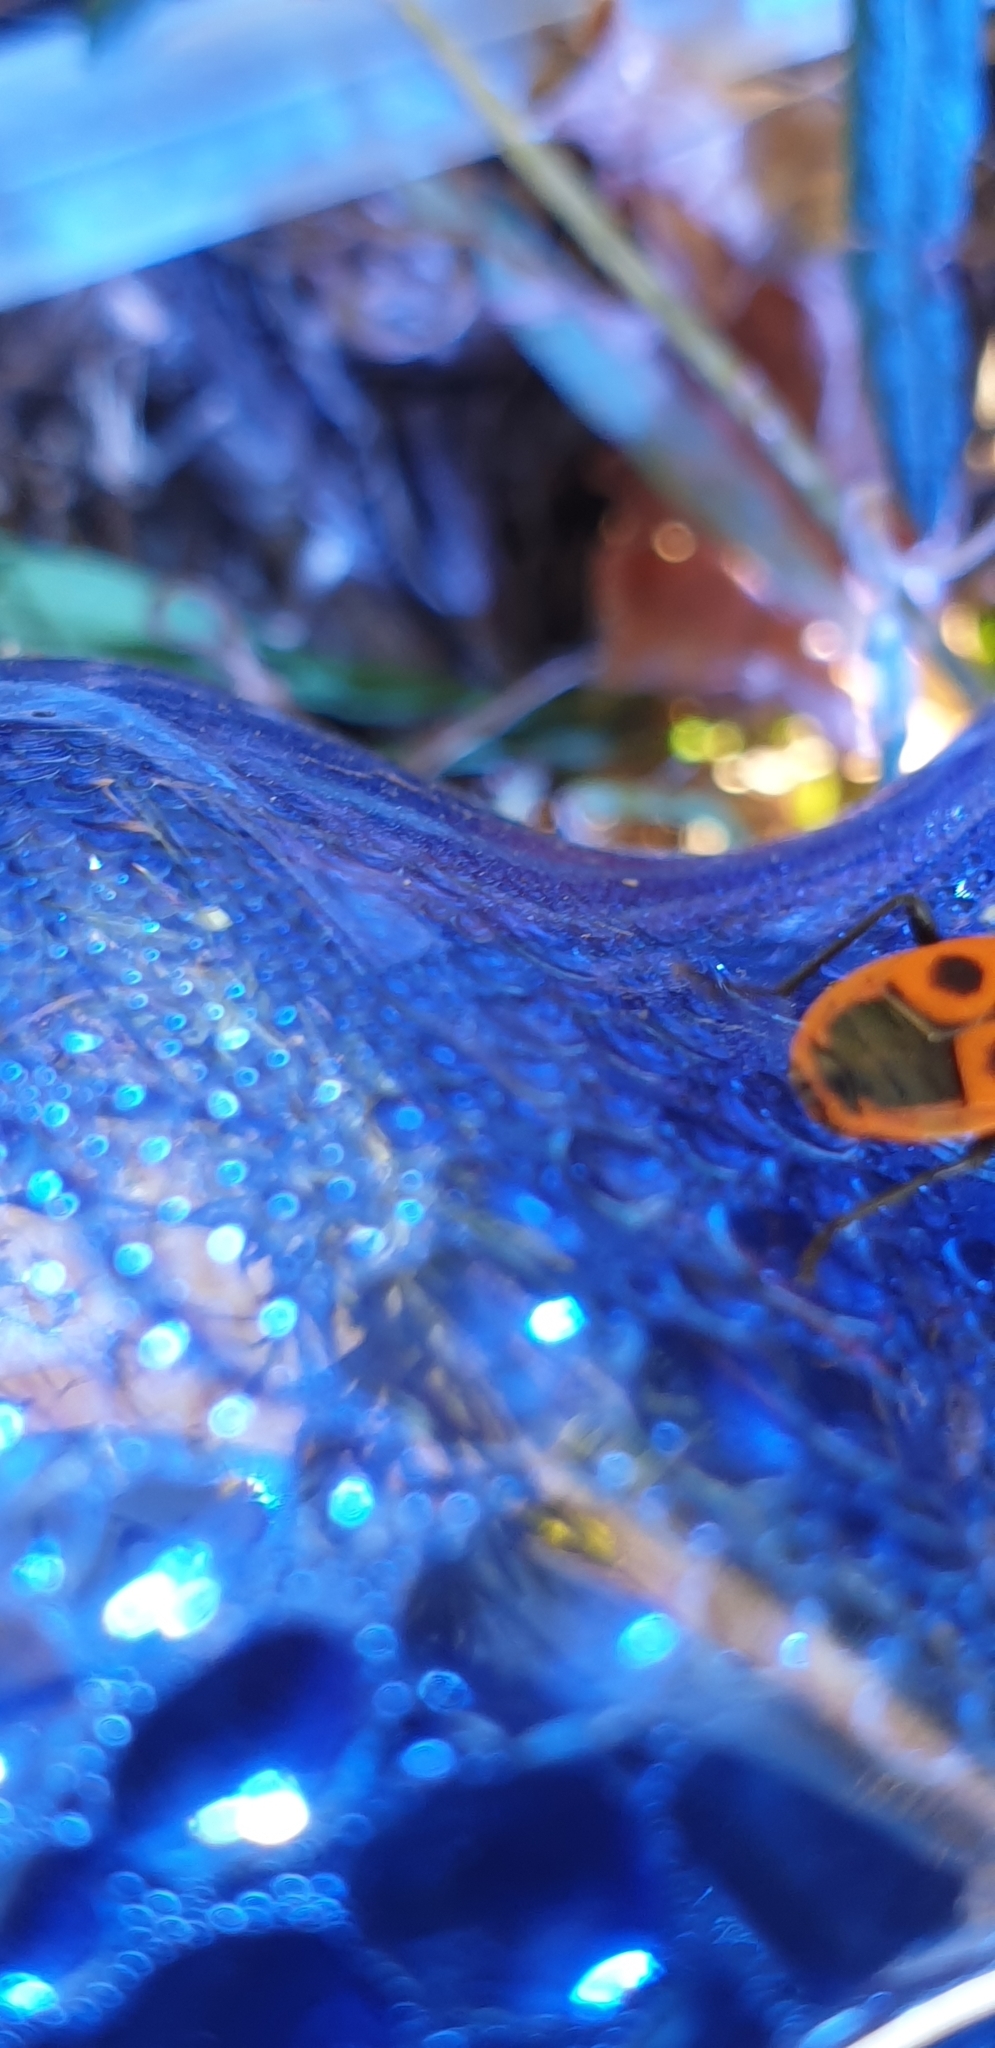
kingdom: Animalia
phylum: Arthropoda
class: Insecta
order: Hemiptera
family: Pyrrhocoridae
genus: Pyrrhocoris
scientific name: Pyrrhocoris apterus
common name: Firebug
